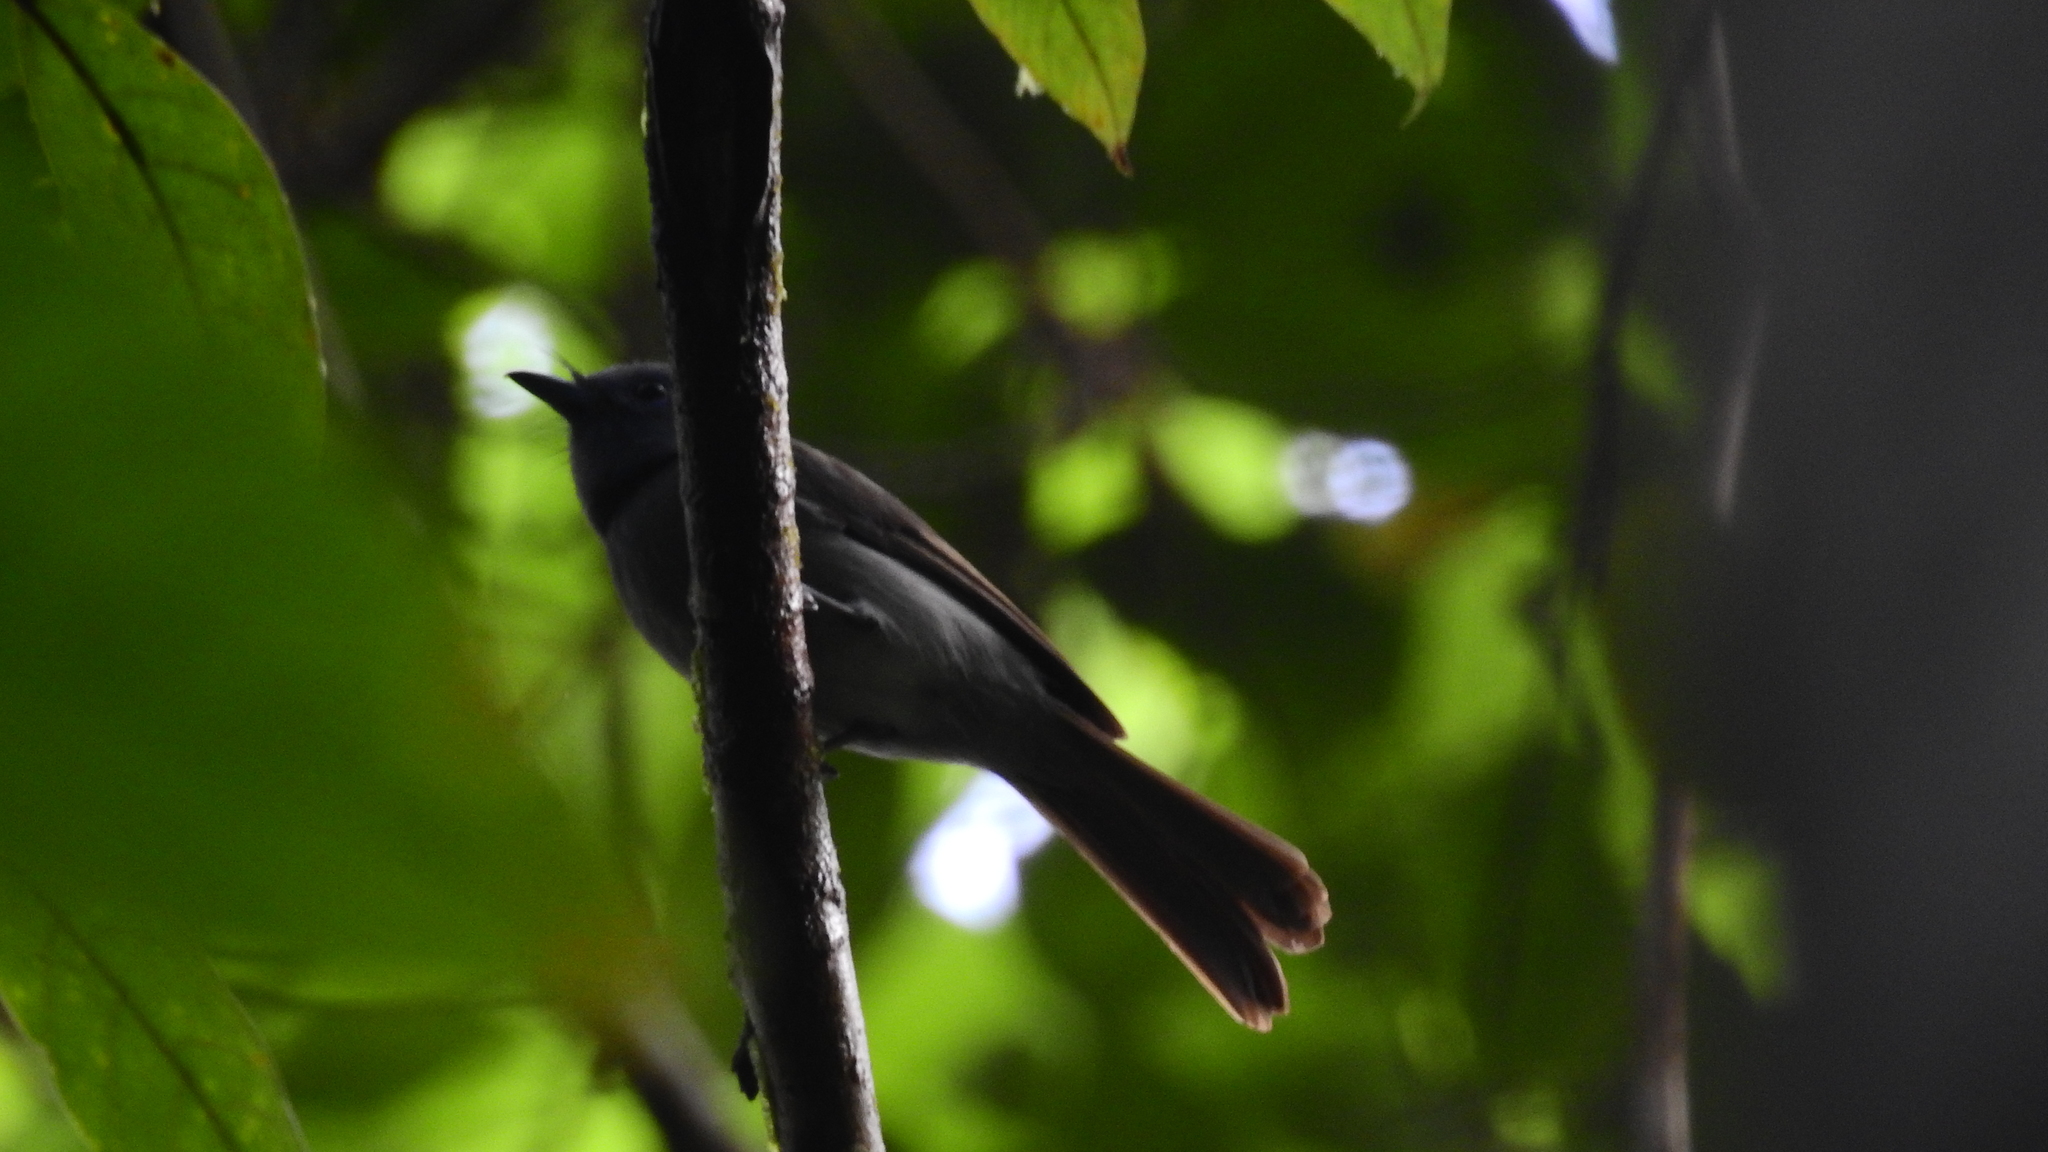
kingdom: Animalia
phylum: Chordata
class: Aves
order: Passeriformes
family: Monarchidae
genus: Hypothymis
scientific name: Hypothymis azurea
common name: Black-naped monarch
